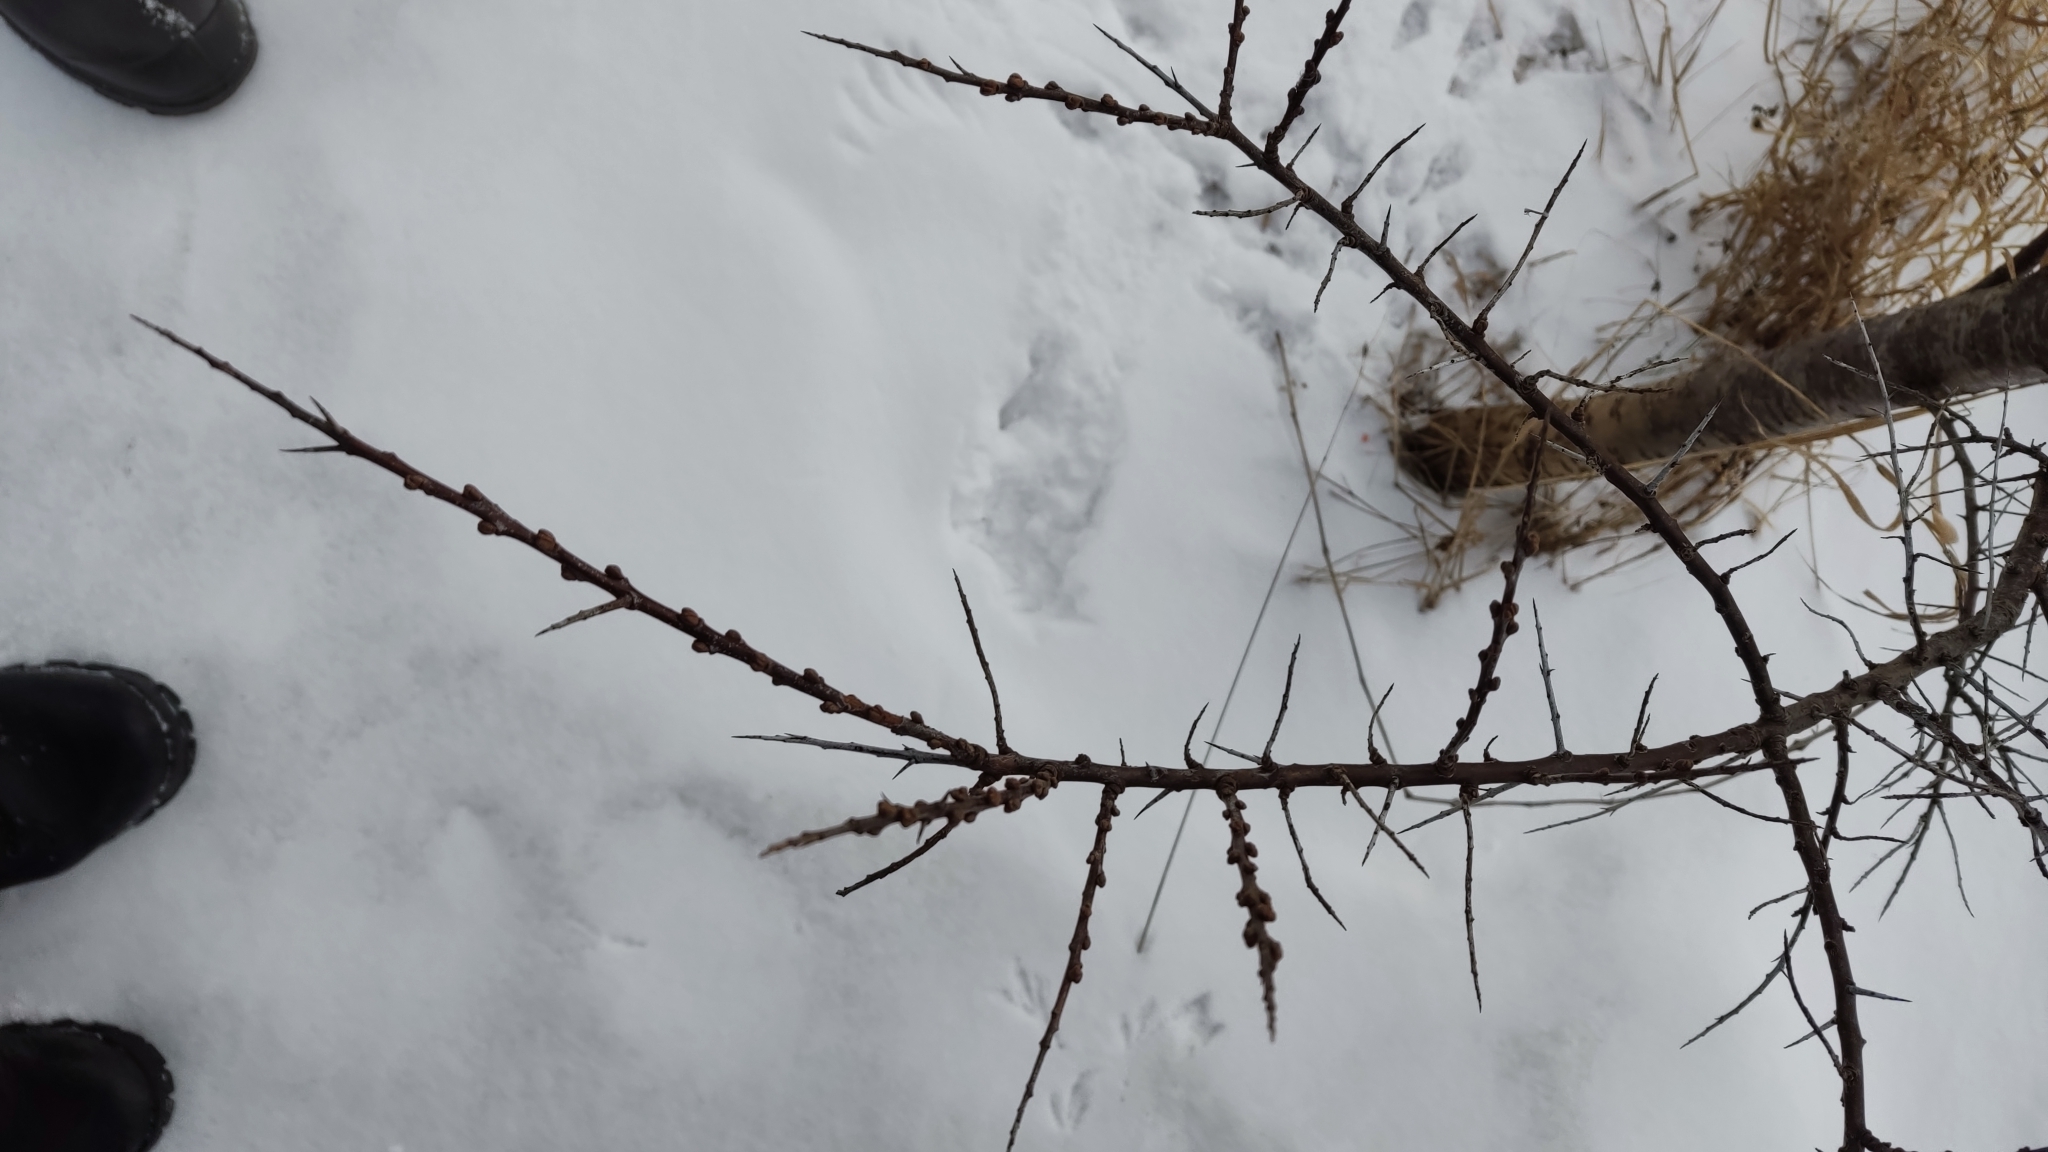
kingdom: Plantae
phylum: Tracheophyta
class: Magnoliopsida
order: Rosales
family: Elaeagnaceae
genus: Hippophae
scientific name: Hippophae rhamnoides
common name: Sea-buckthorn
